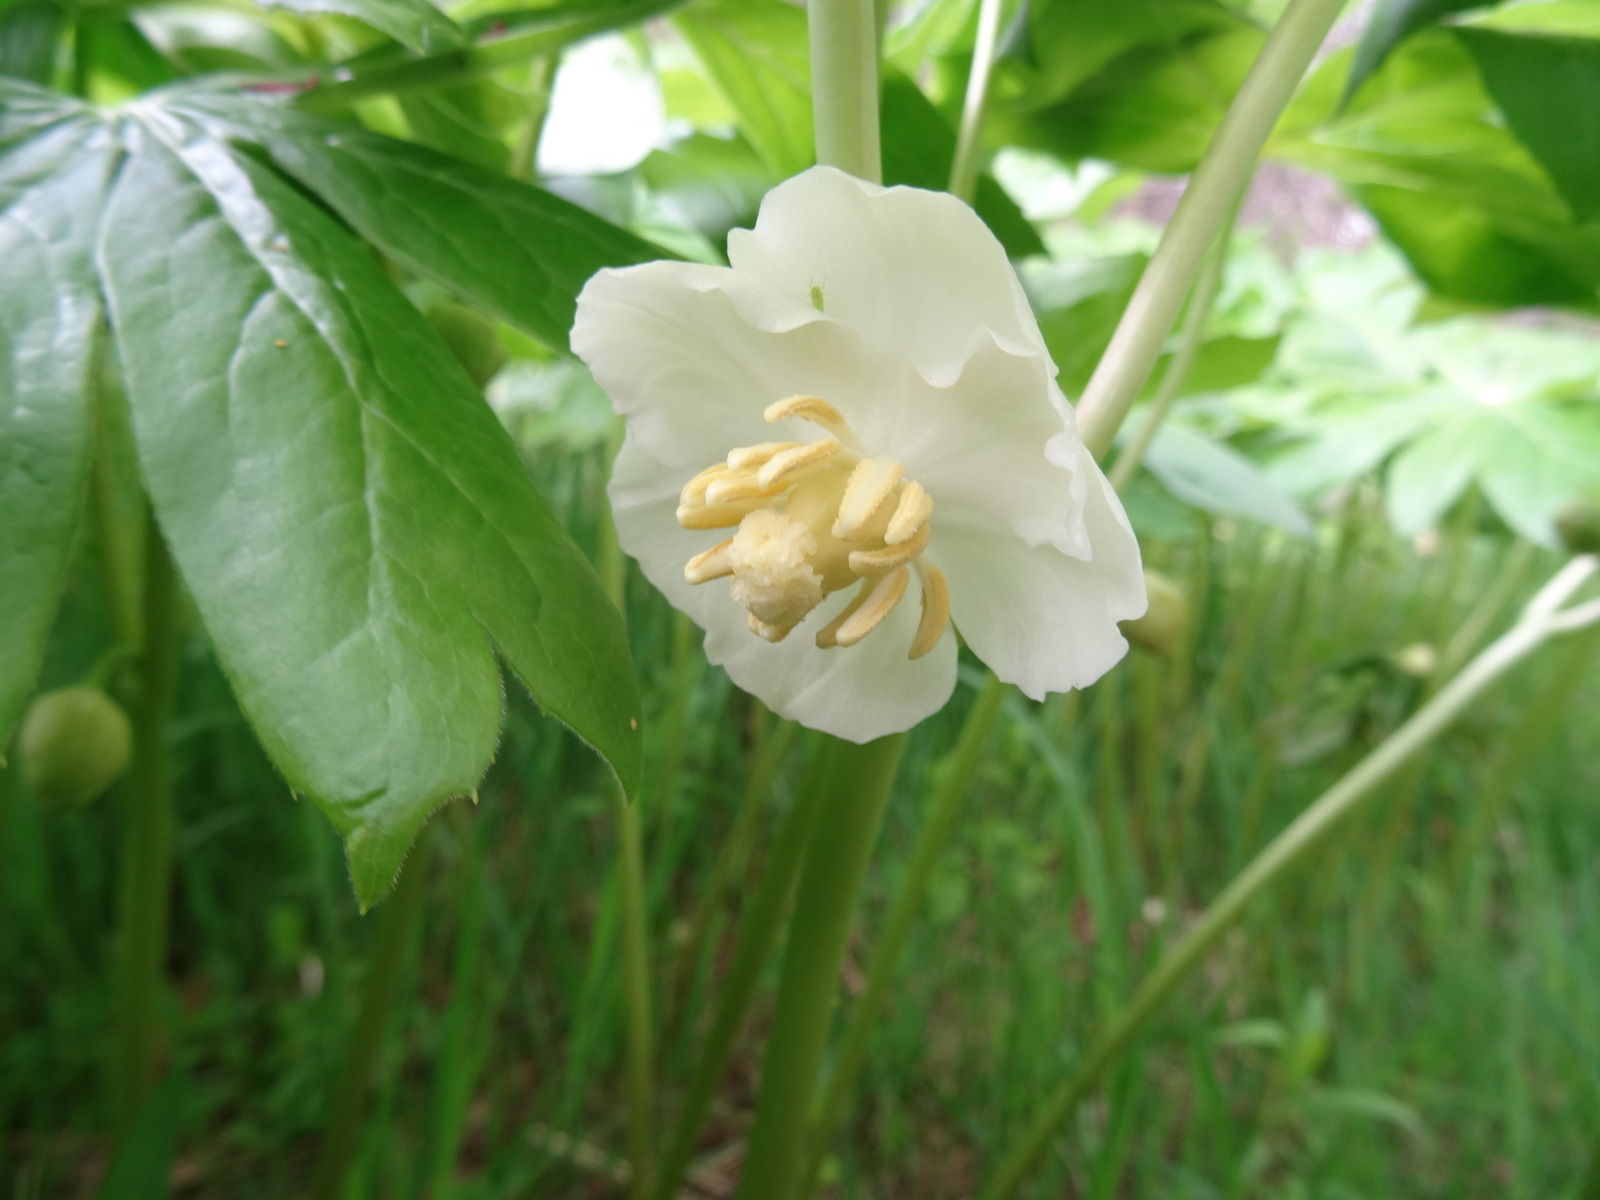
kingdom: Plantae
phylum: Tracheophyta
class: Magnoliopsida
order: Ranunculales
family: Berberidaceae
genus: Podophyllum
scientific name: Podophyllum peltatum
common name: Wild mandrake
